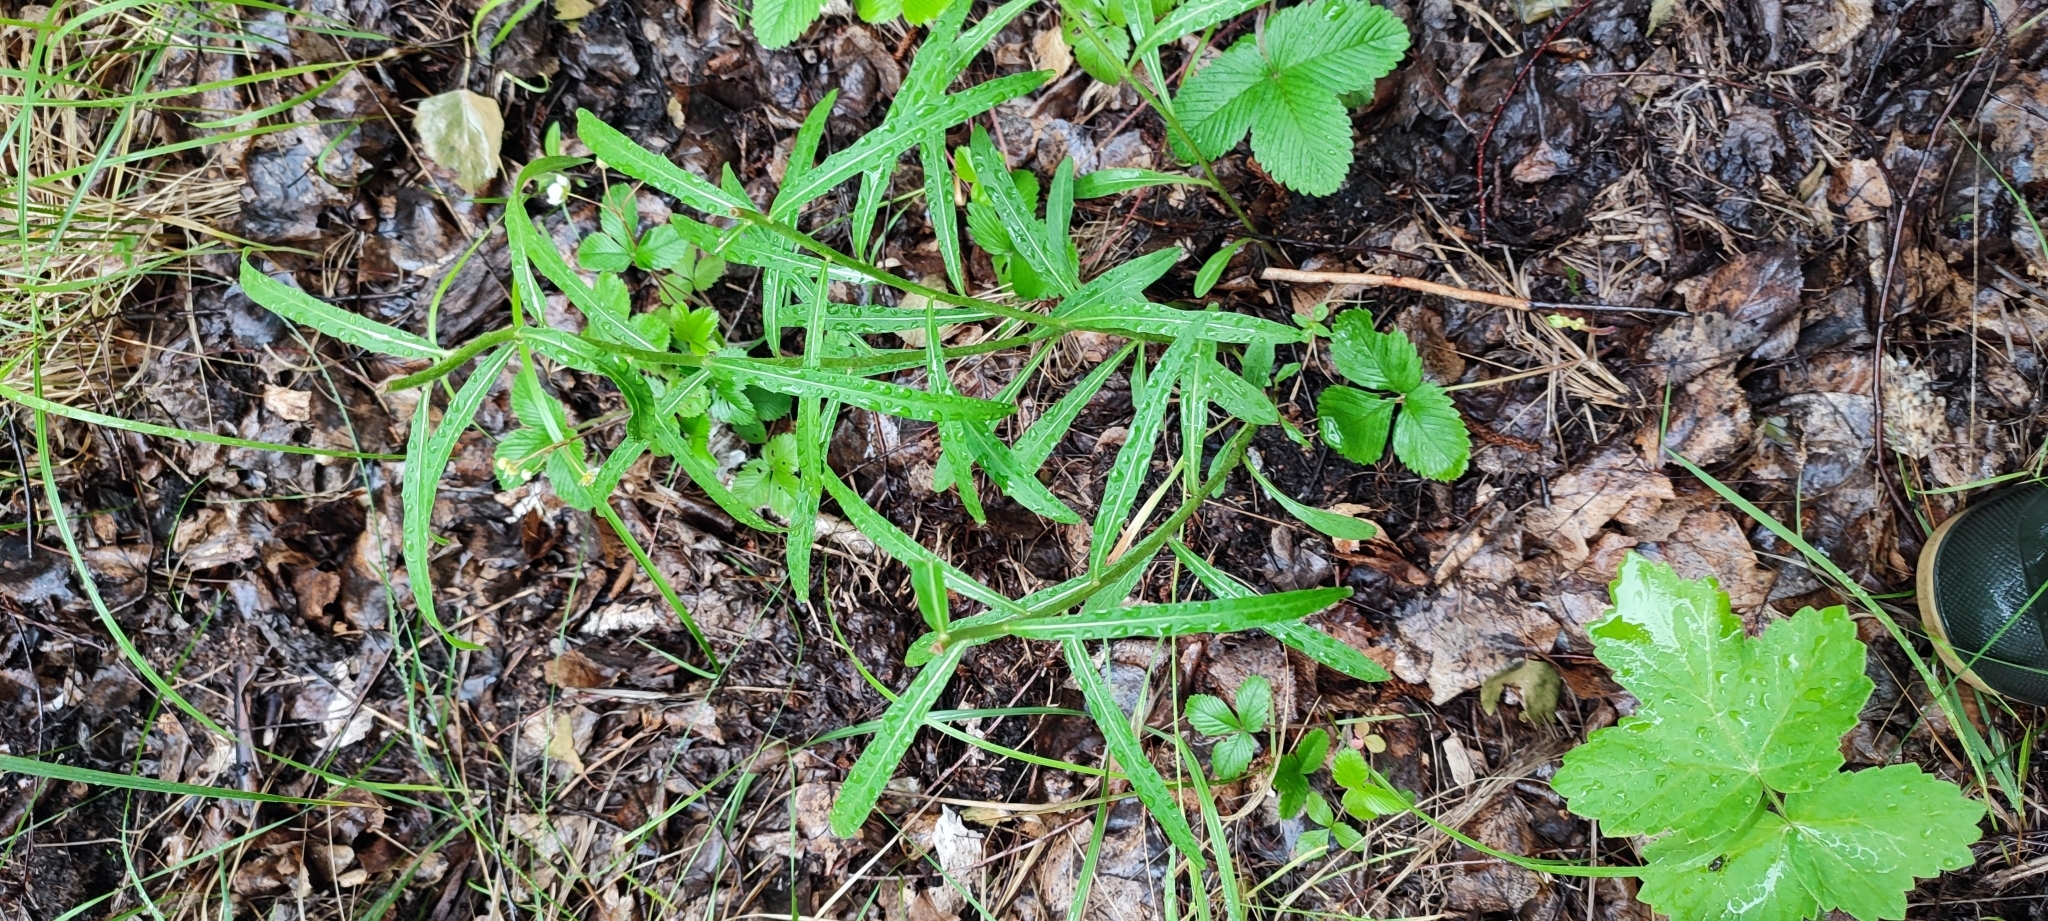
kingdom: Plantae
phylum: Tracheophyta
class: Magnoliopsida
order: Asterales
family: Asteraceae
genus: Hieracium
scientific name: Hieracium umbellatum
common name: Northern hawkweed
